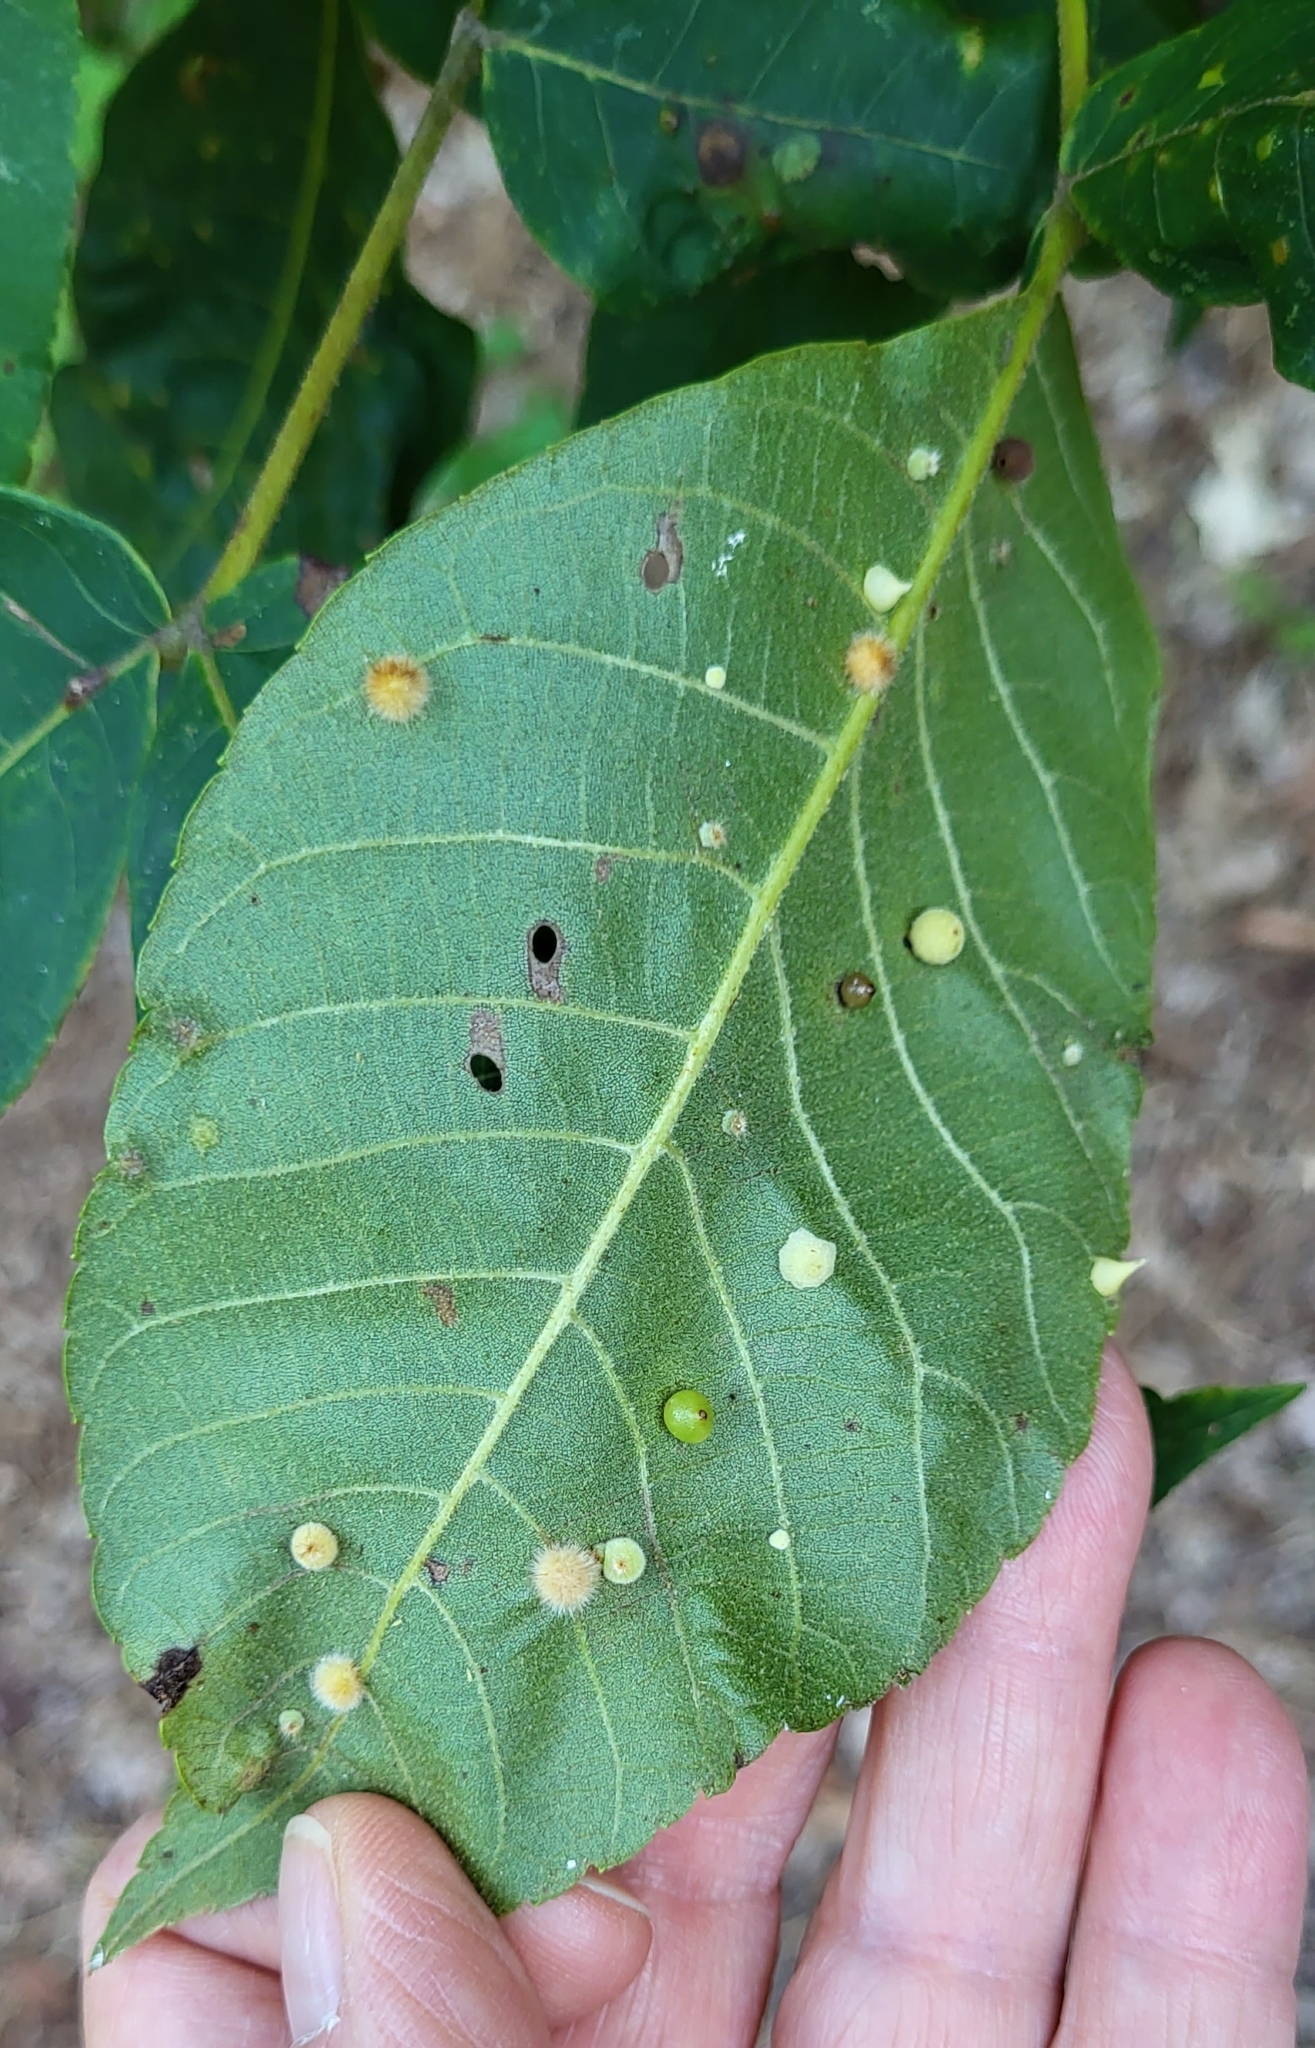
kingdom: Animalia
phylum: Arthropoda
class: Insecta
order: Diptera
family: Cecidomyiidae
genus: Caryomyia
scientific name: Caryomyia tuberidolium
